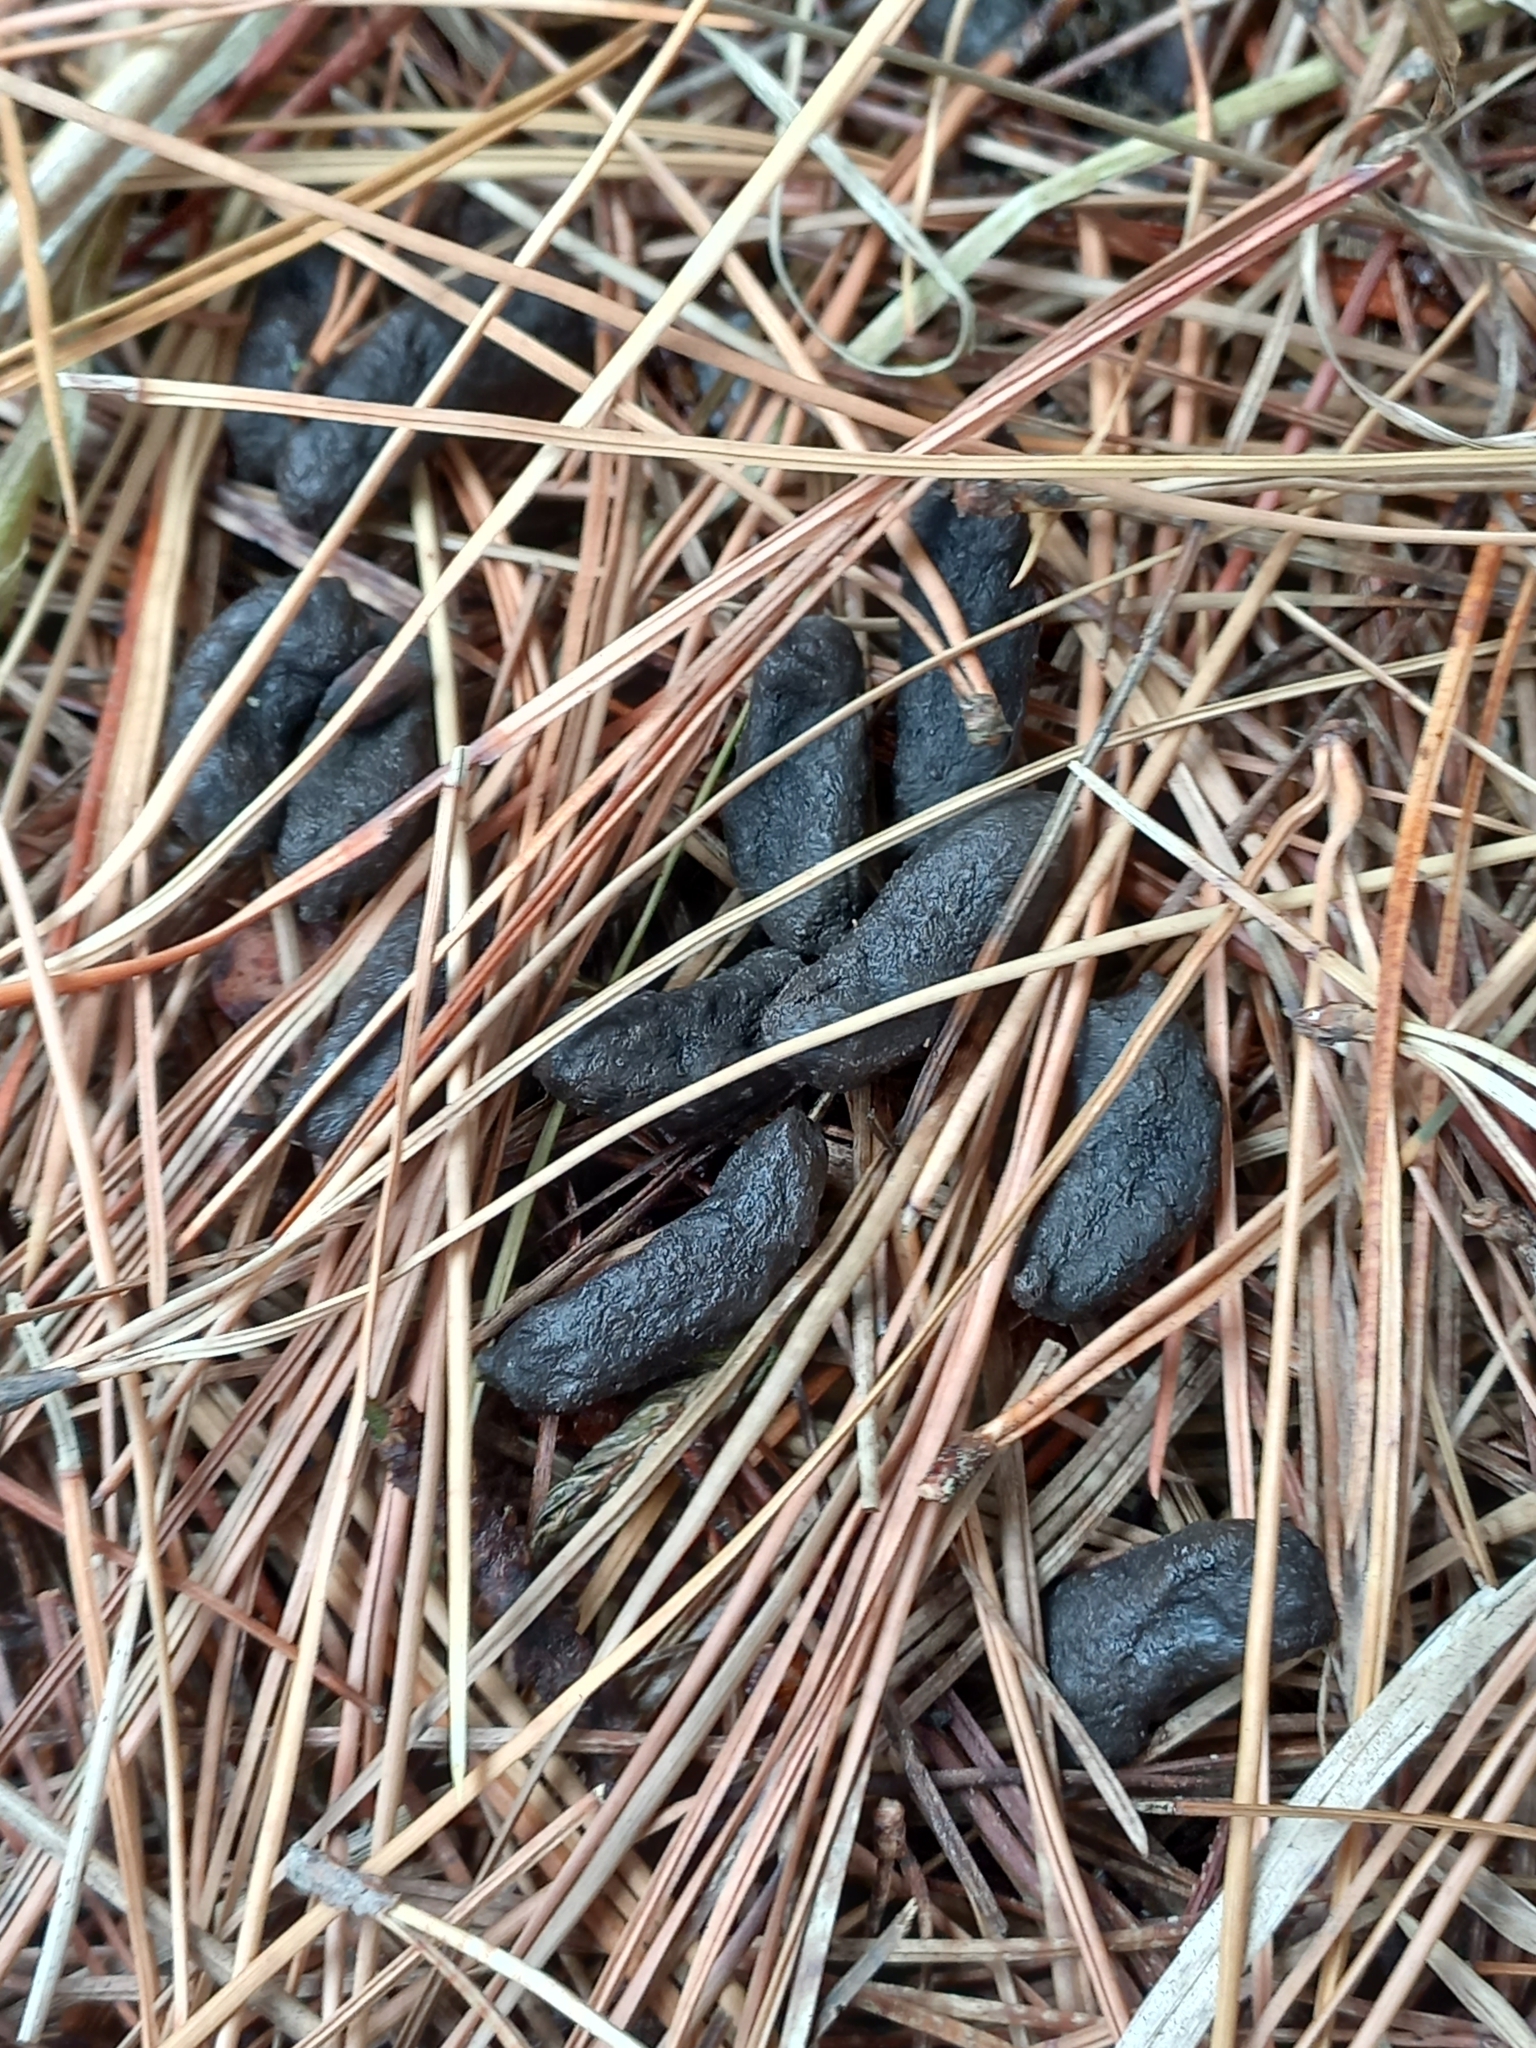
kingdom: Animalia
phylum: Chordata
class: Mammalia
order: Diprotodontia
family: Phalangeridae
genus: Trichosurus
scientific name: Trichosurus vulpecula
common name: Common brushtail
